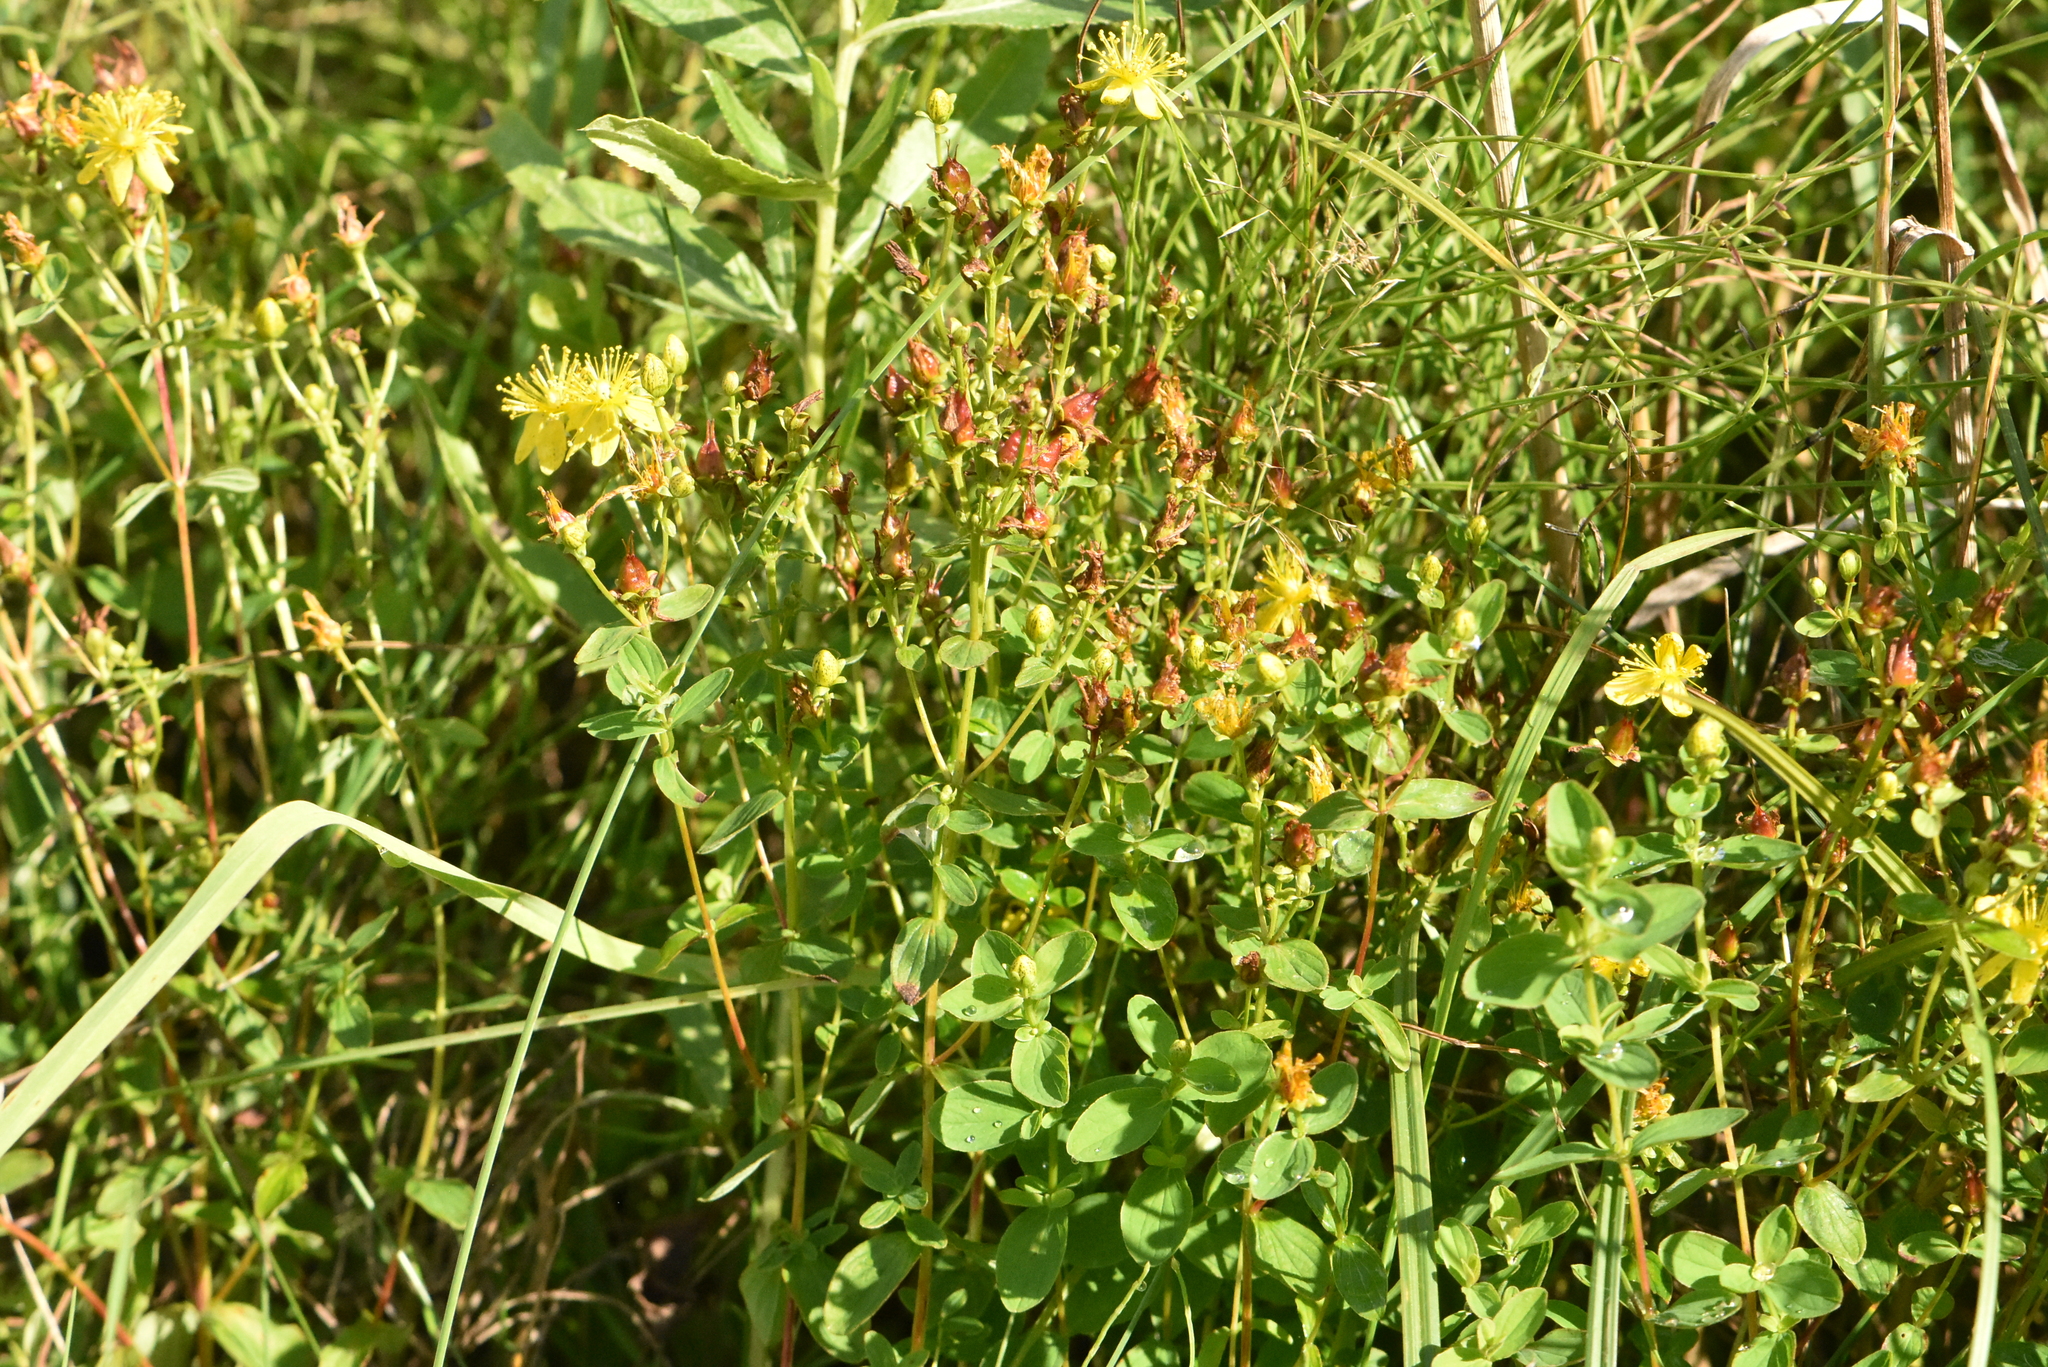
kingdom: Plantae
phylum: Tracheophyta
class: Magnoliopsida
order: Malpighiales
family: Hypericaceae
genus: Hypericum
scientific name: Hypericum maculatum
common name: Imperforate st. john's-wort
